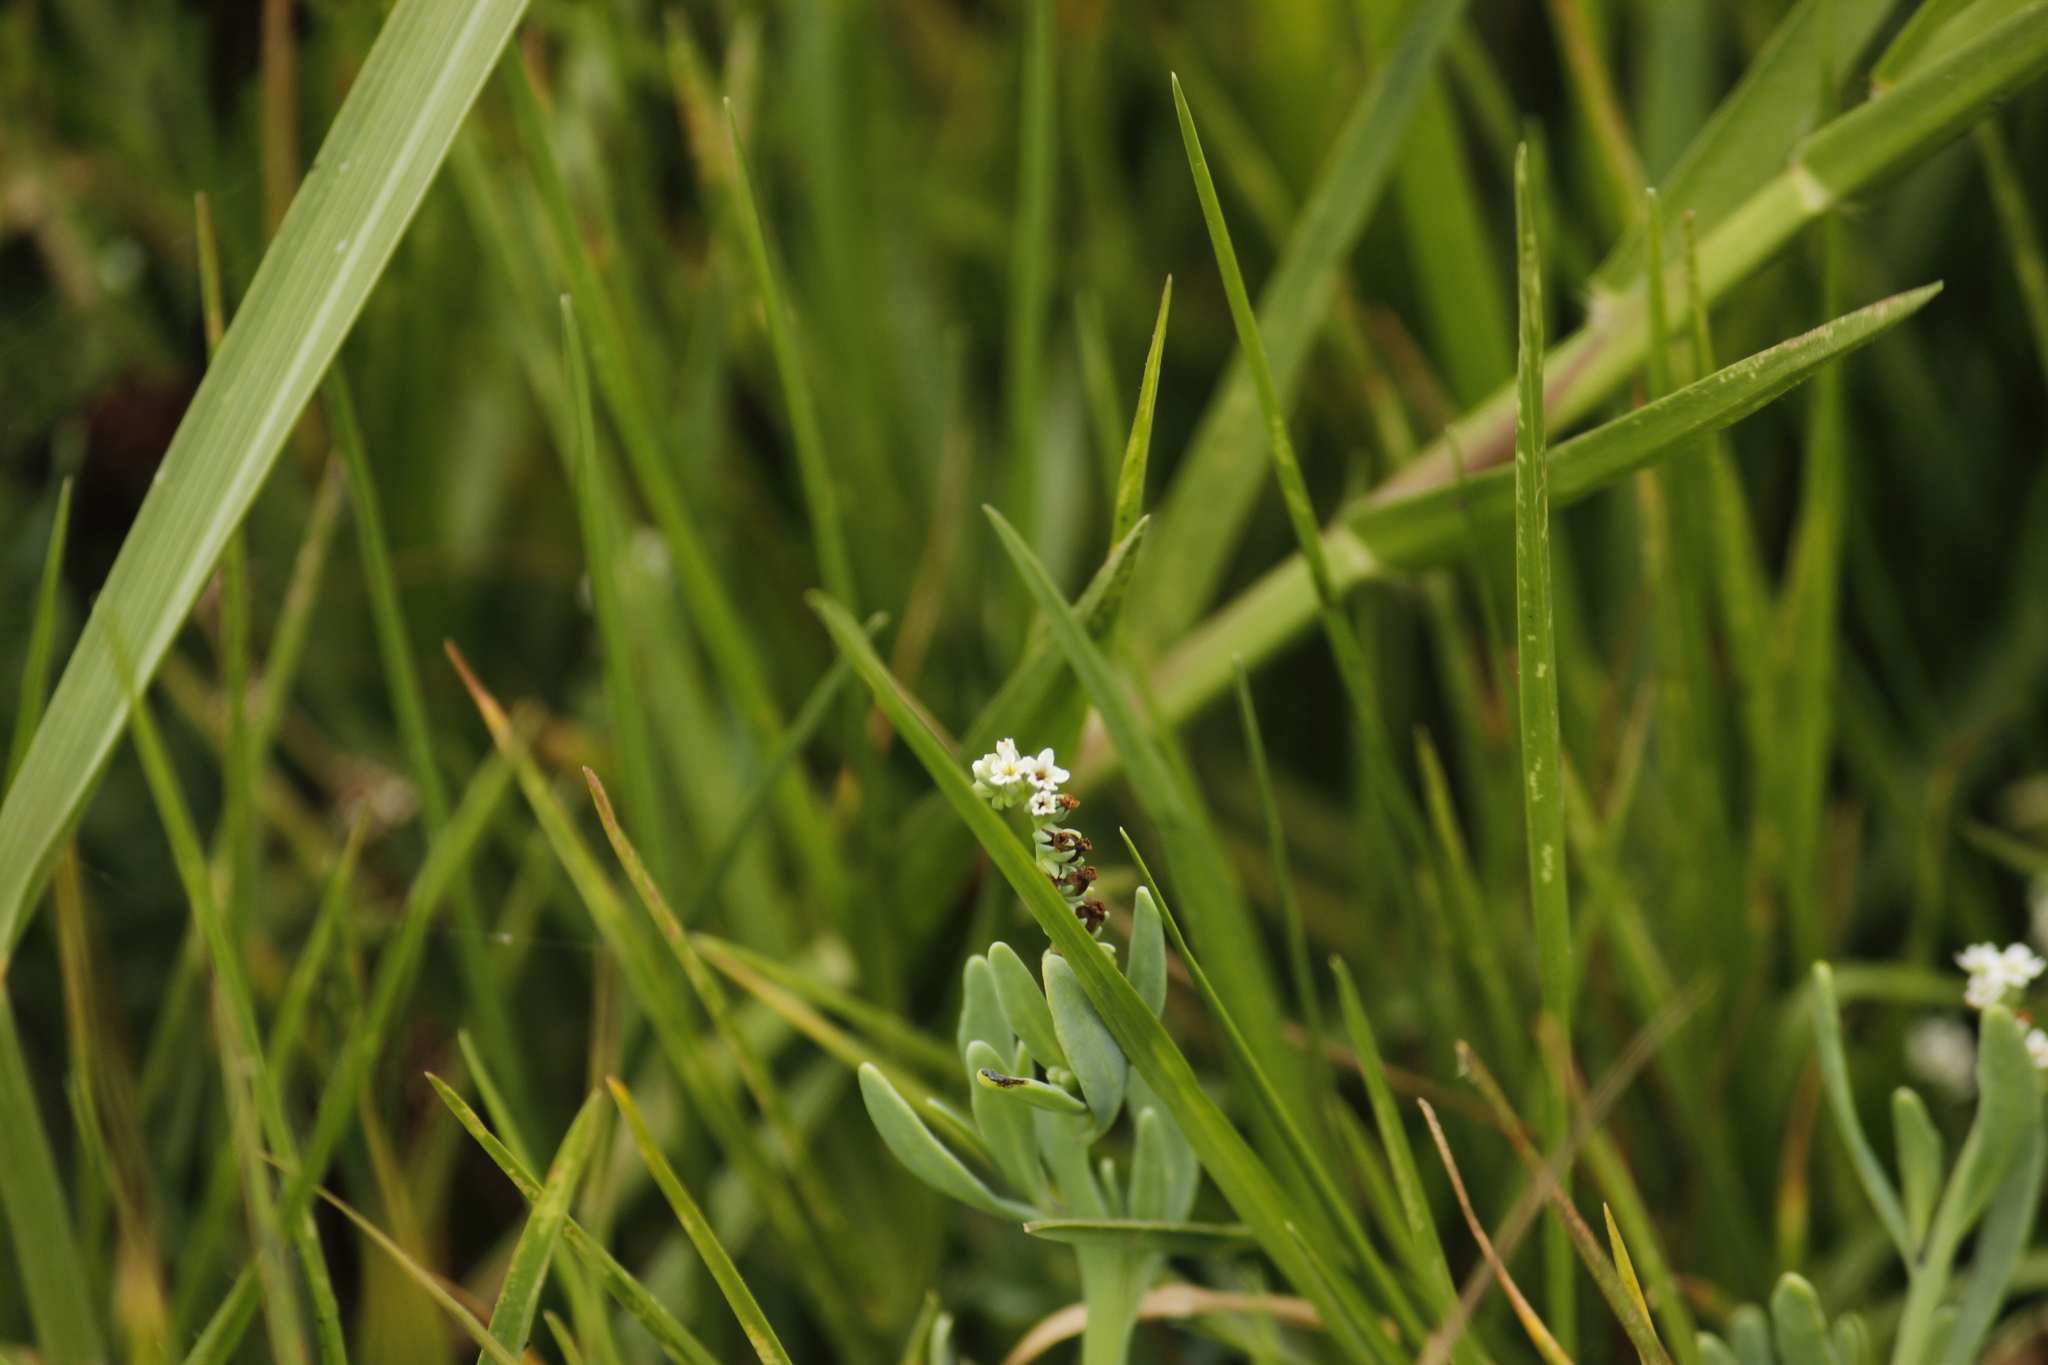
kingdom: Plantae
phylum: Tracheophyta
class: Magnoliopsida
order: Boraginales
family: Heliotropiaceae
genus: Heliotropium
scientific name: Heliotropium curassavicum
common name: Seaside heliotrope
